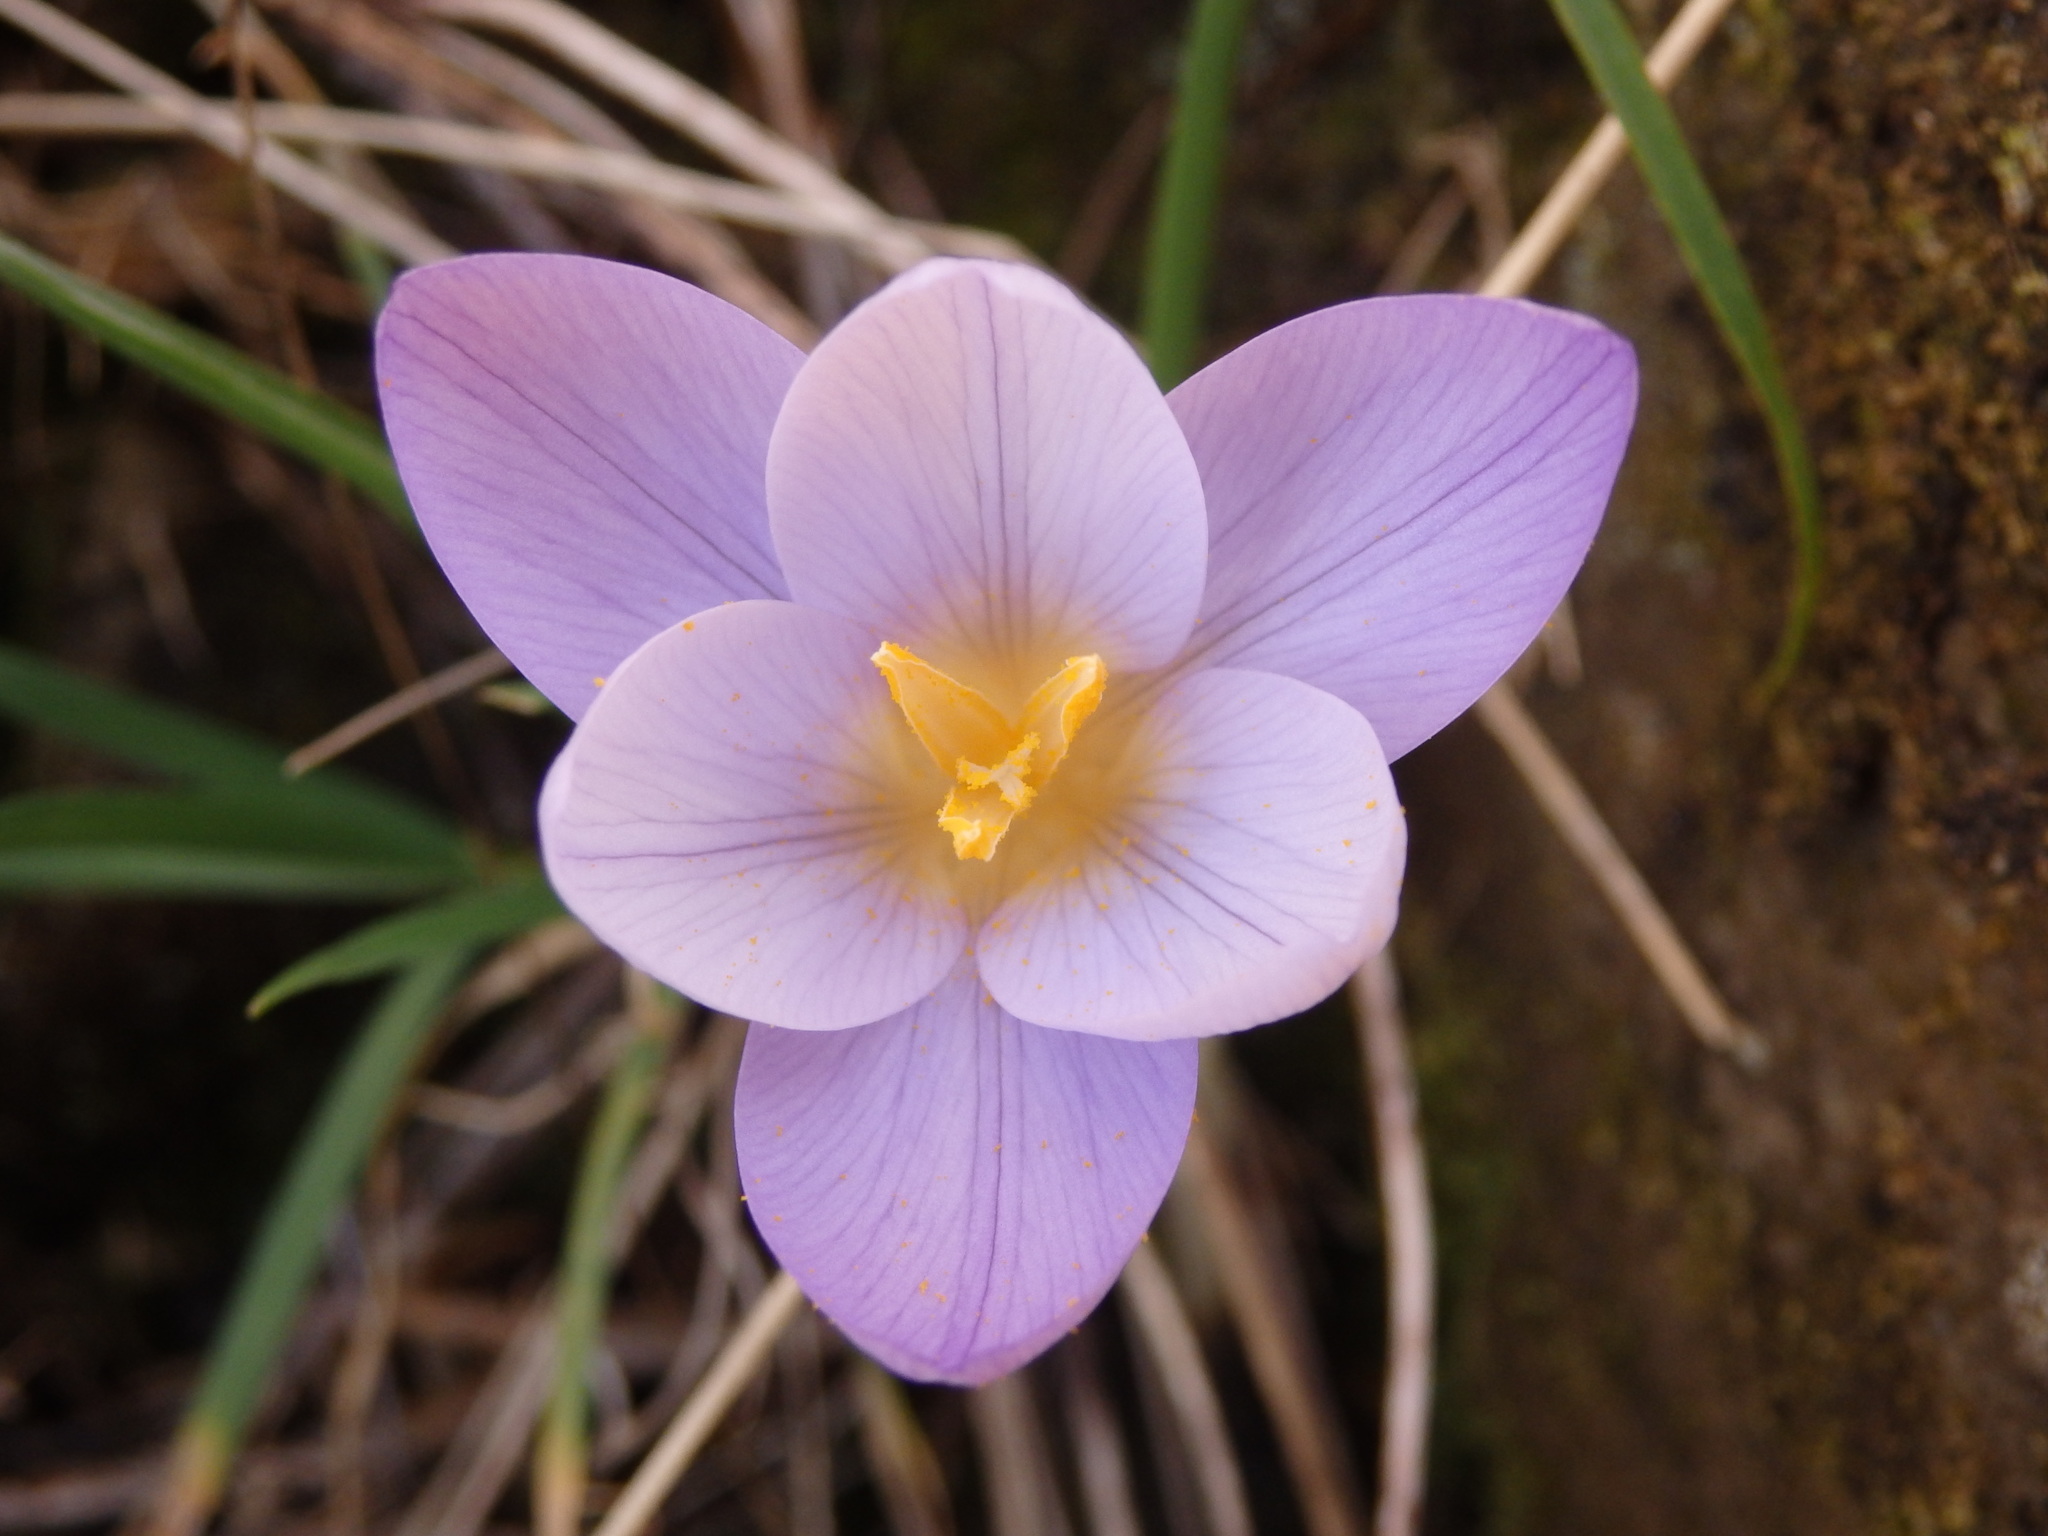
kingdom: Plantae
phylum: Tracheophyta
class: Liliopsida
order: Asparagales
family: Iridaceae
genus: Crocus
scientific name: Crocus carpetanus
